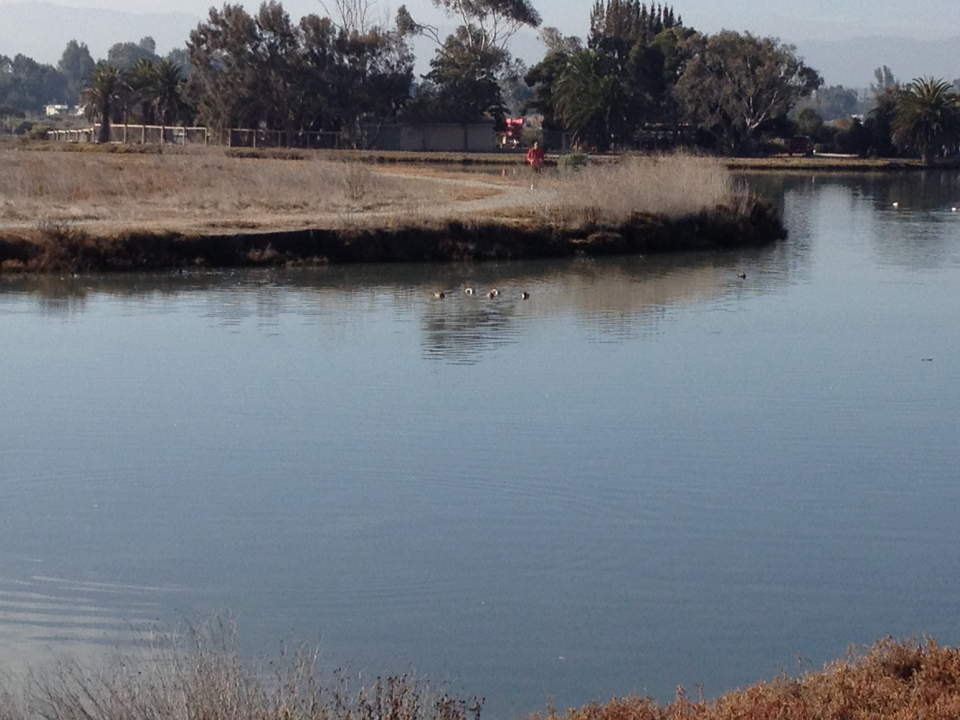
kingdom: Animalia
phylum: Chordata
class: Aves
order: Anseriformes
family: Anatidae
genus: Spatula
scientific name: Spatula clypeata
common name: Northern shoveler
